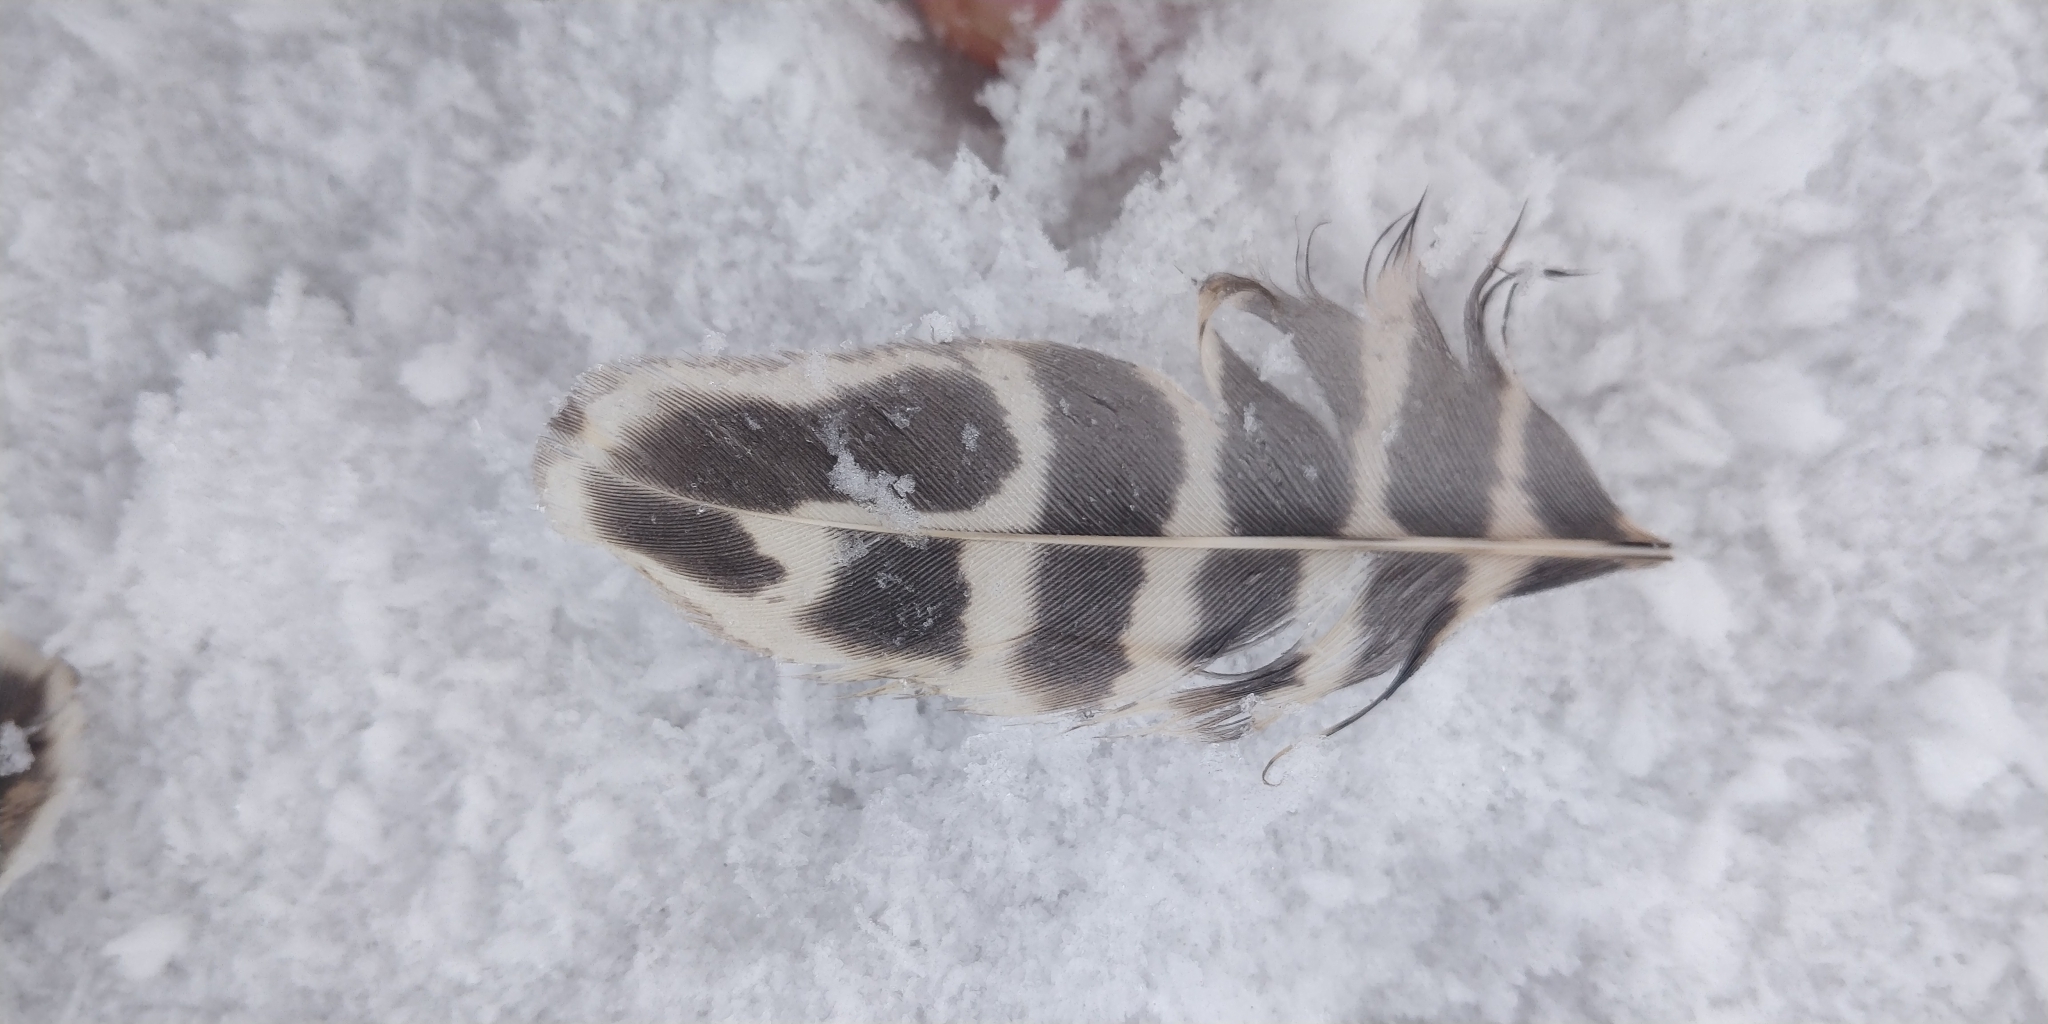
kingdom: Animalia
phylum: Chordata
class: Aves
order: Galliformes
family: Phasianidae
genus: Phasianus
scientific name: Phasianus colchicus
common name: Common pheasant
